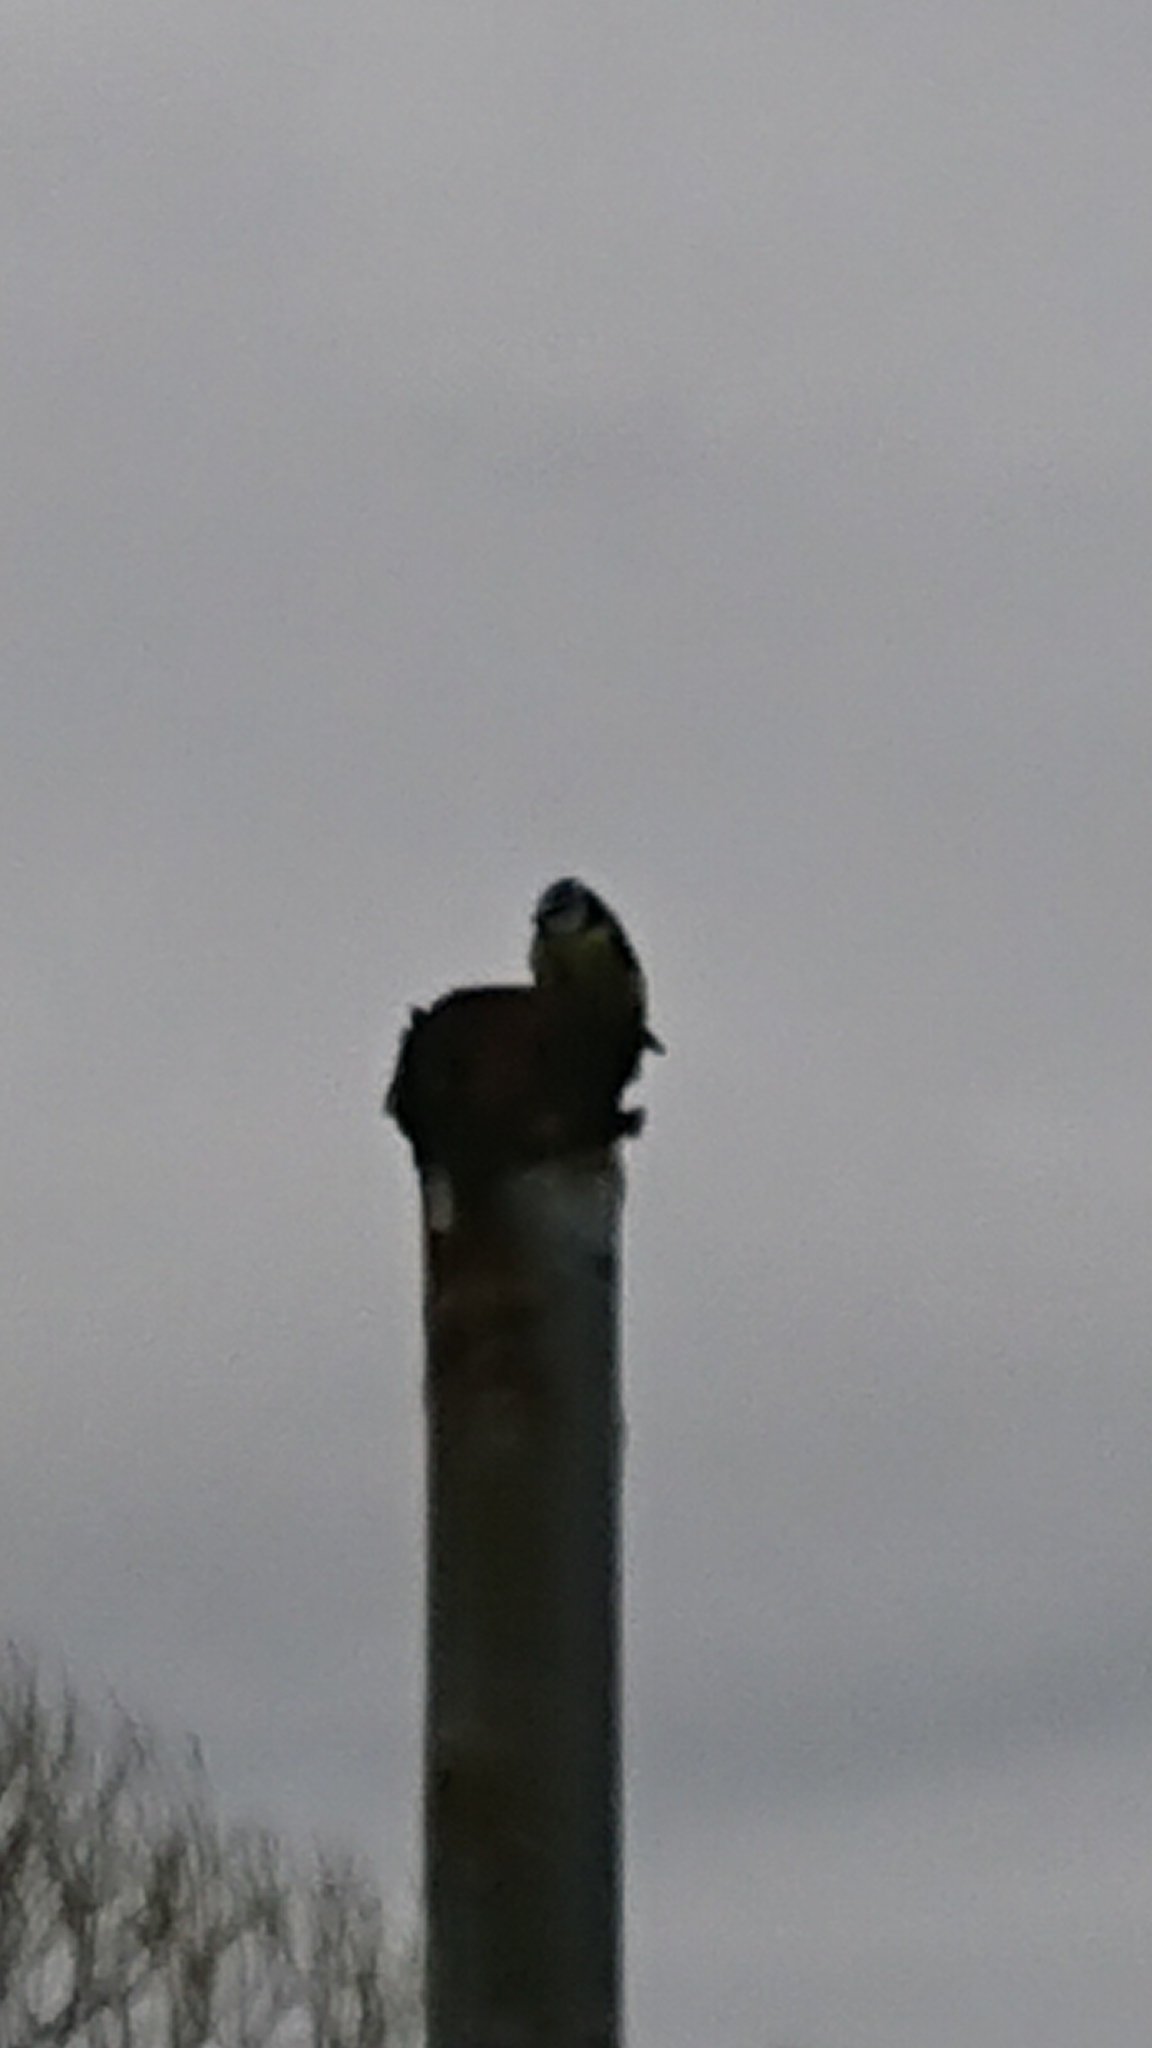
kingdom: Animalia
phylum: Chordata
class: Aves
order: Passeriformes
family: Paridae
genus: Cyanistes
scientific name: Cyanistes caeruleus
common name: Eurasian blue tit
